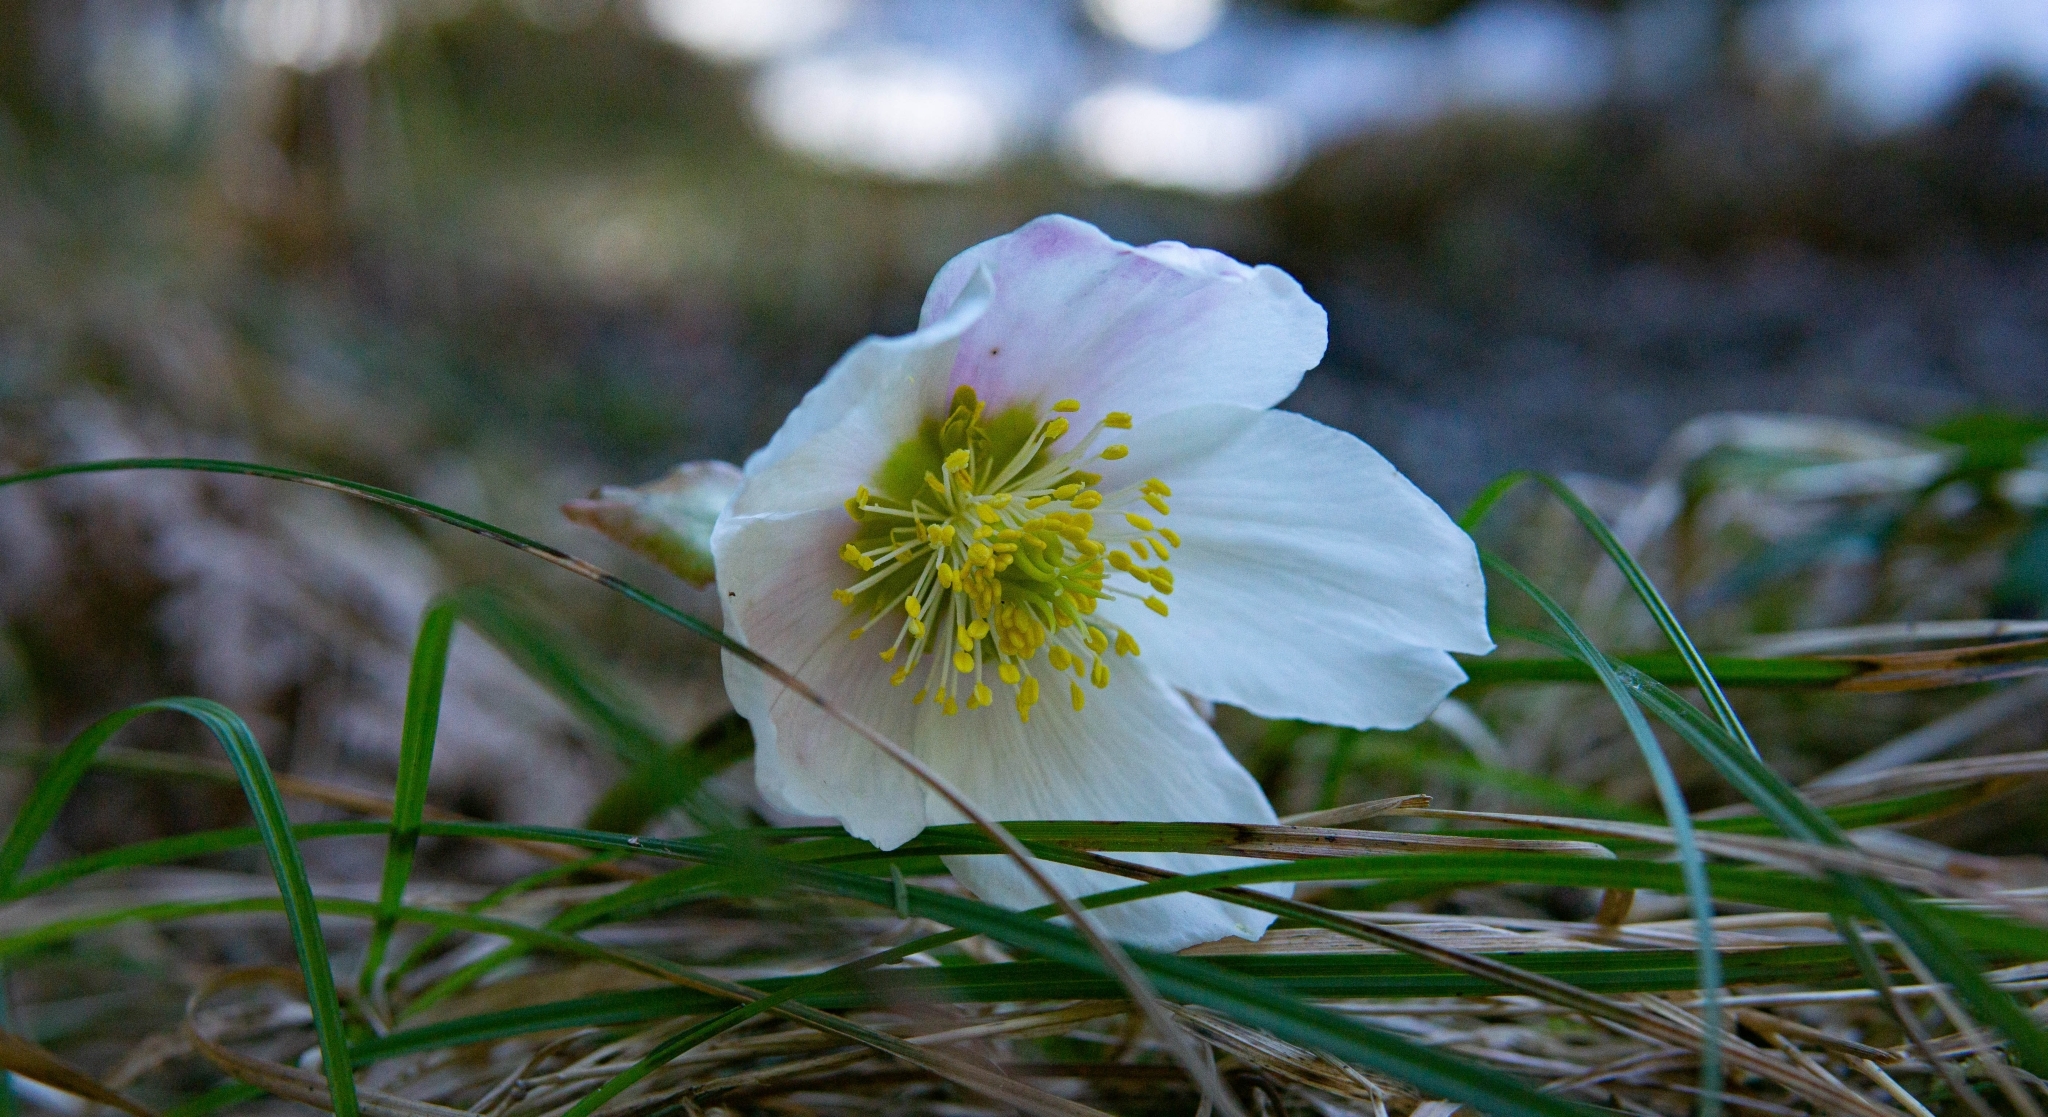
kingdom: Plantae
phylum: Tracheophyta
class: Magnoliopsida
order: Ranunculales
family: Ranunculaceae
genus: Helleborus
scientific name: Helleborus niger
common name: Black hellebore
